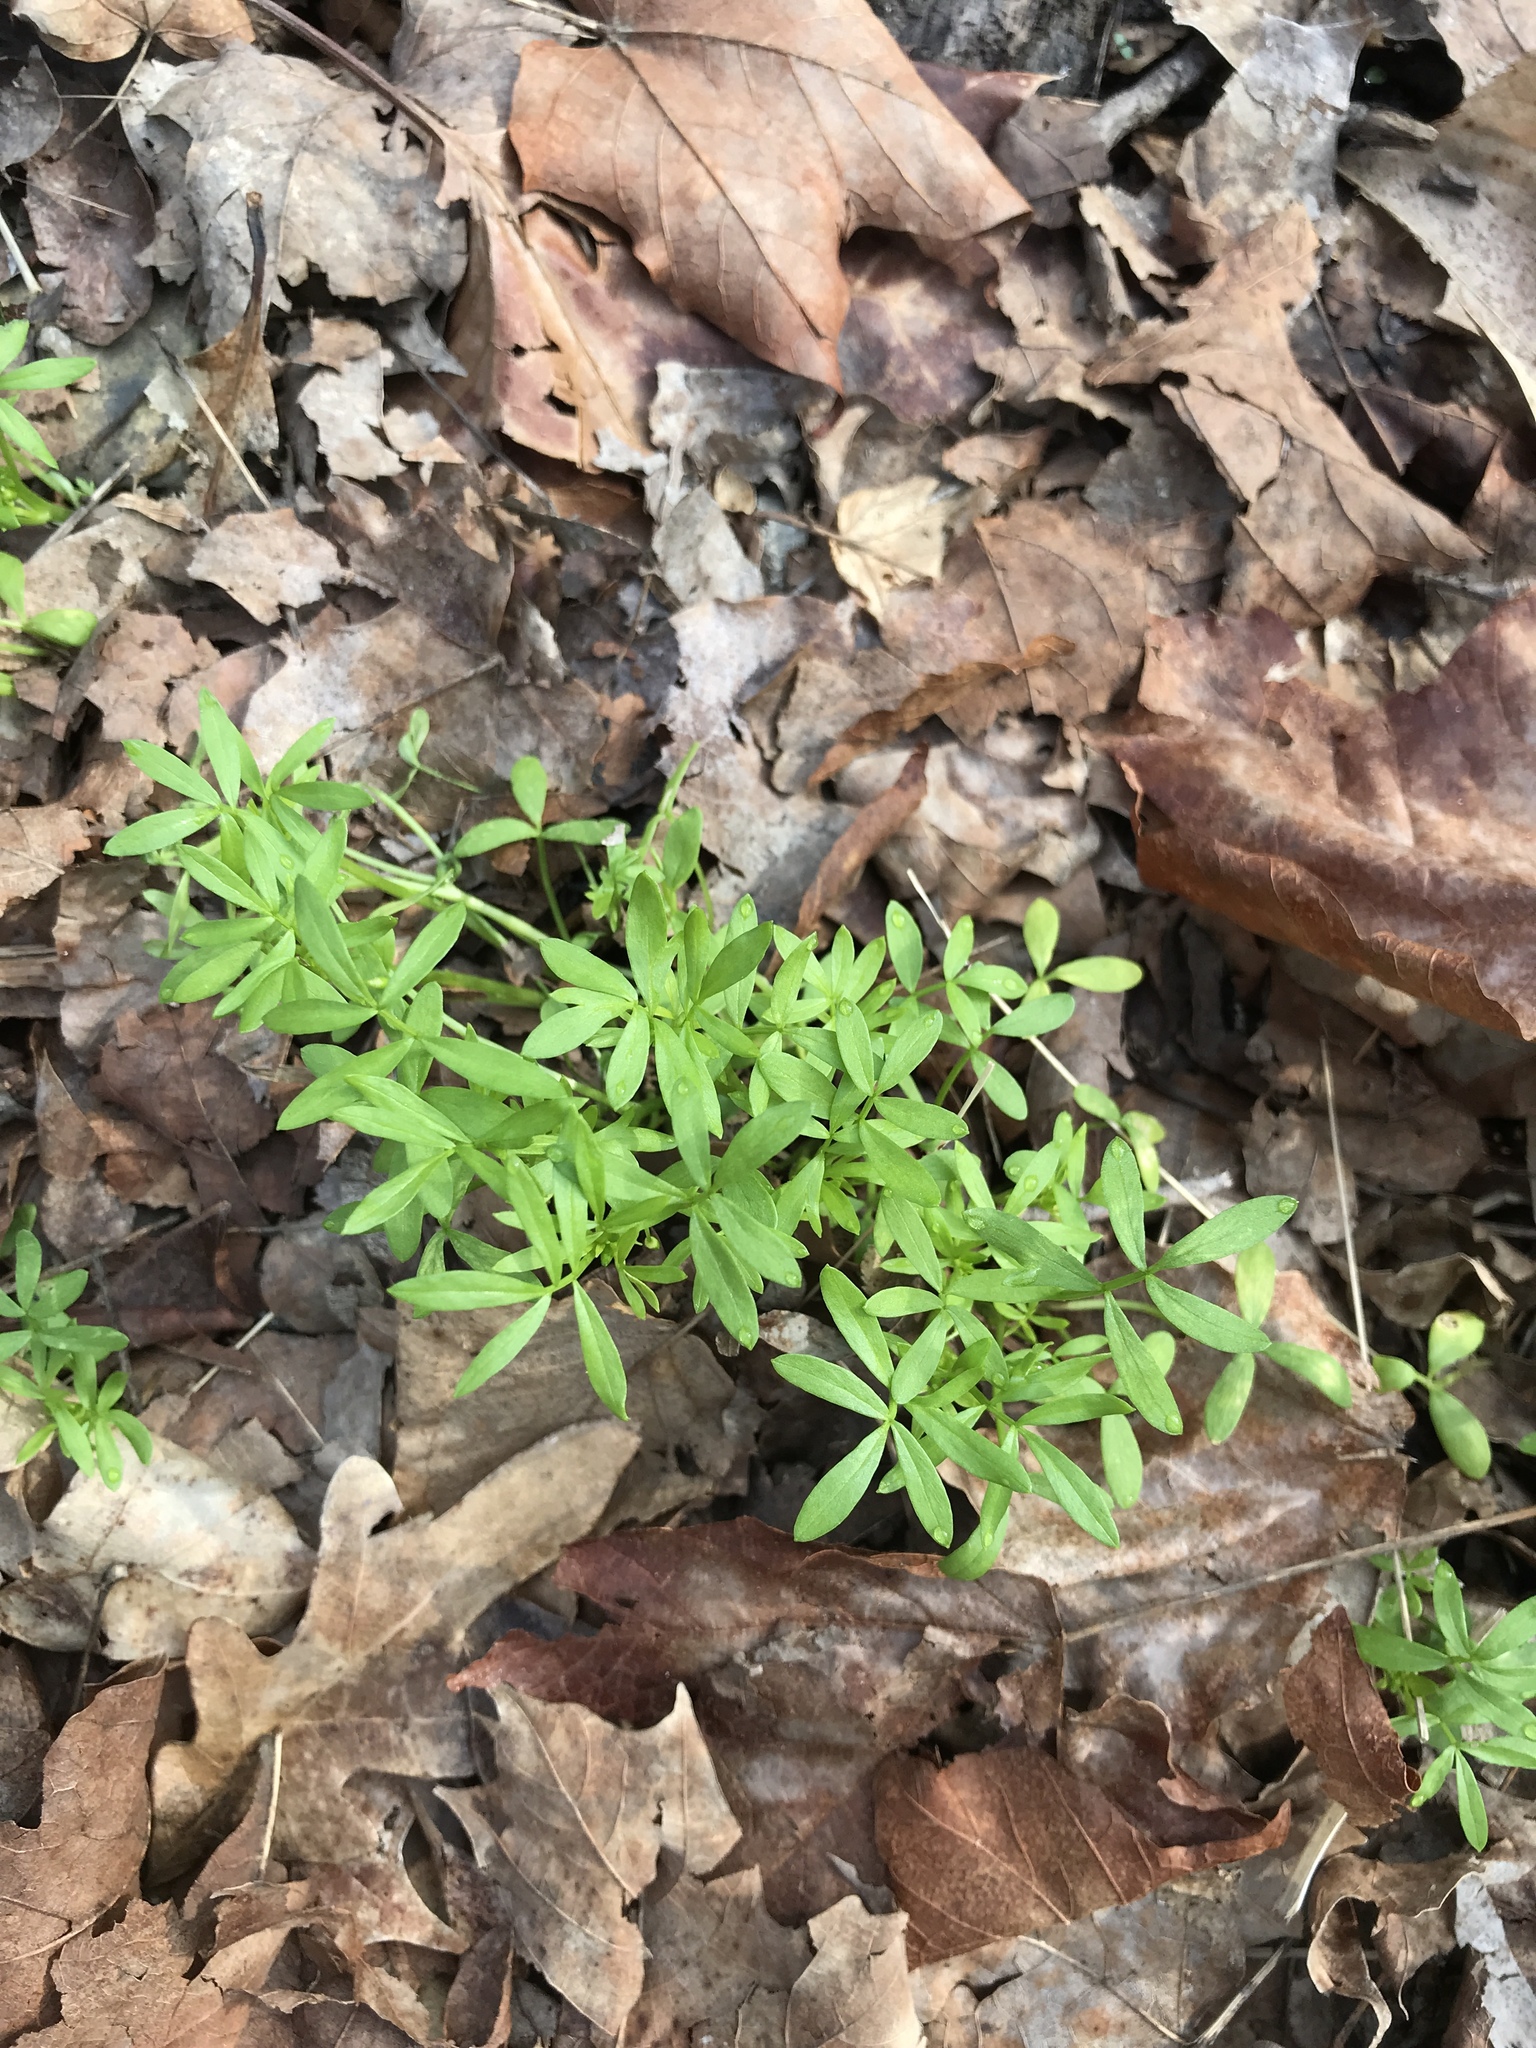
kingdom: Plantae
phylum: Tracheophyta
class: Magnoliopsida
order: Brassicales
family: Limnanthaceae
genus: Floerkea
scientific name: Floerkea proserpinacoides
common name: False mermaid
